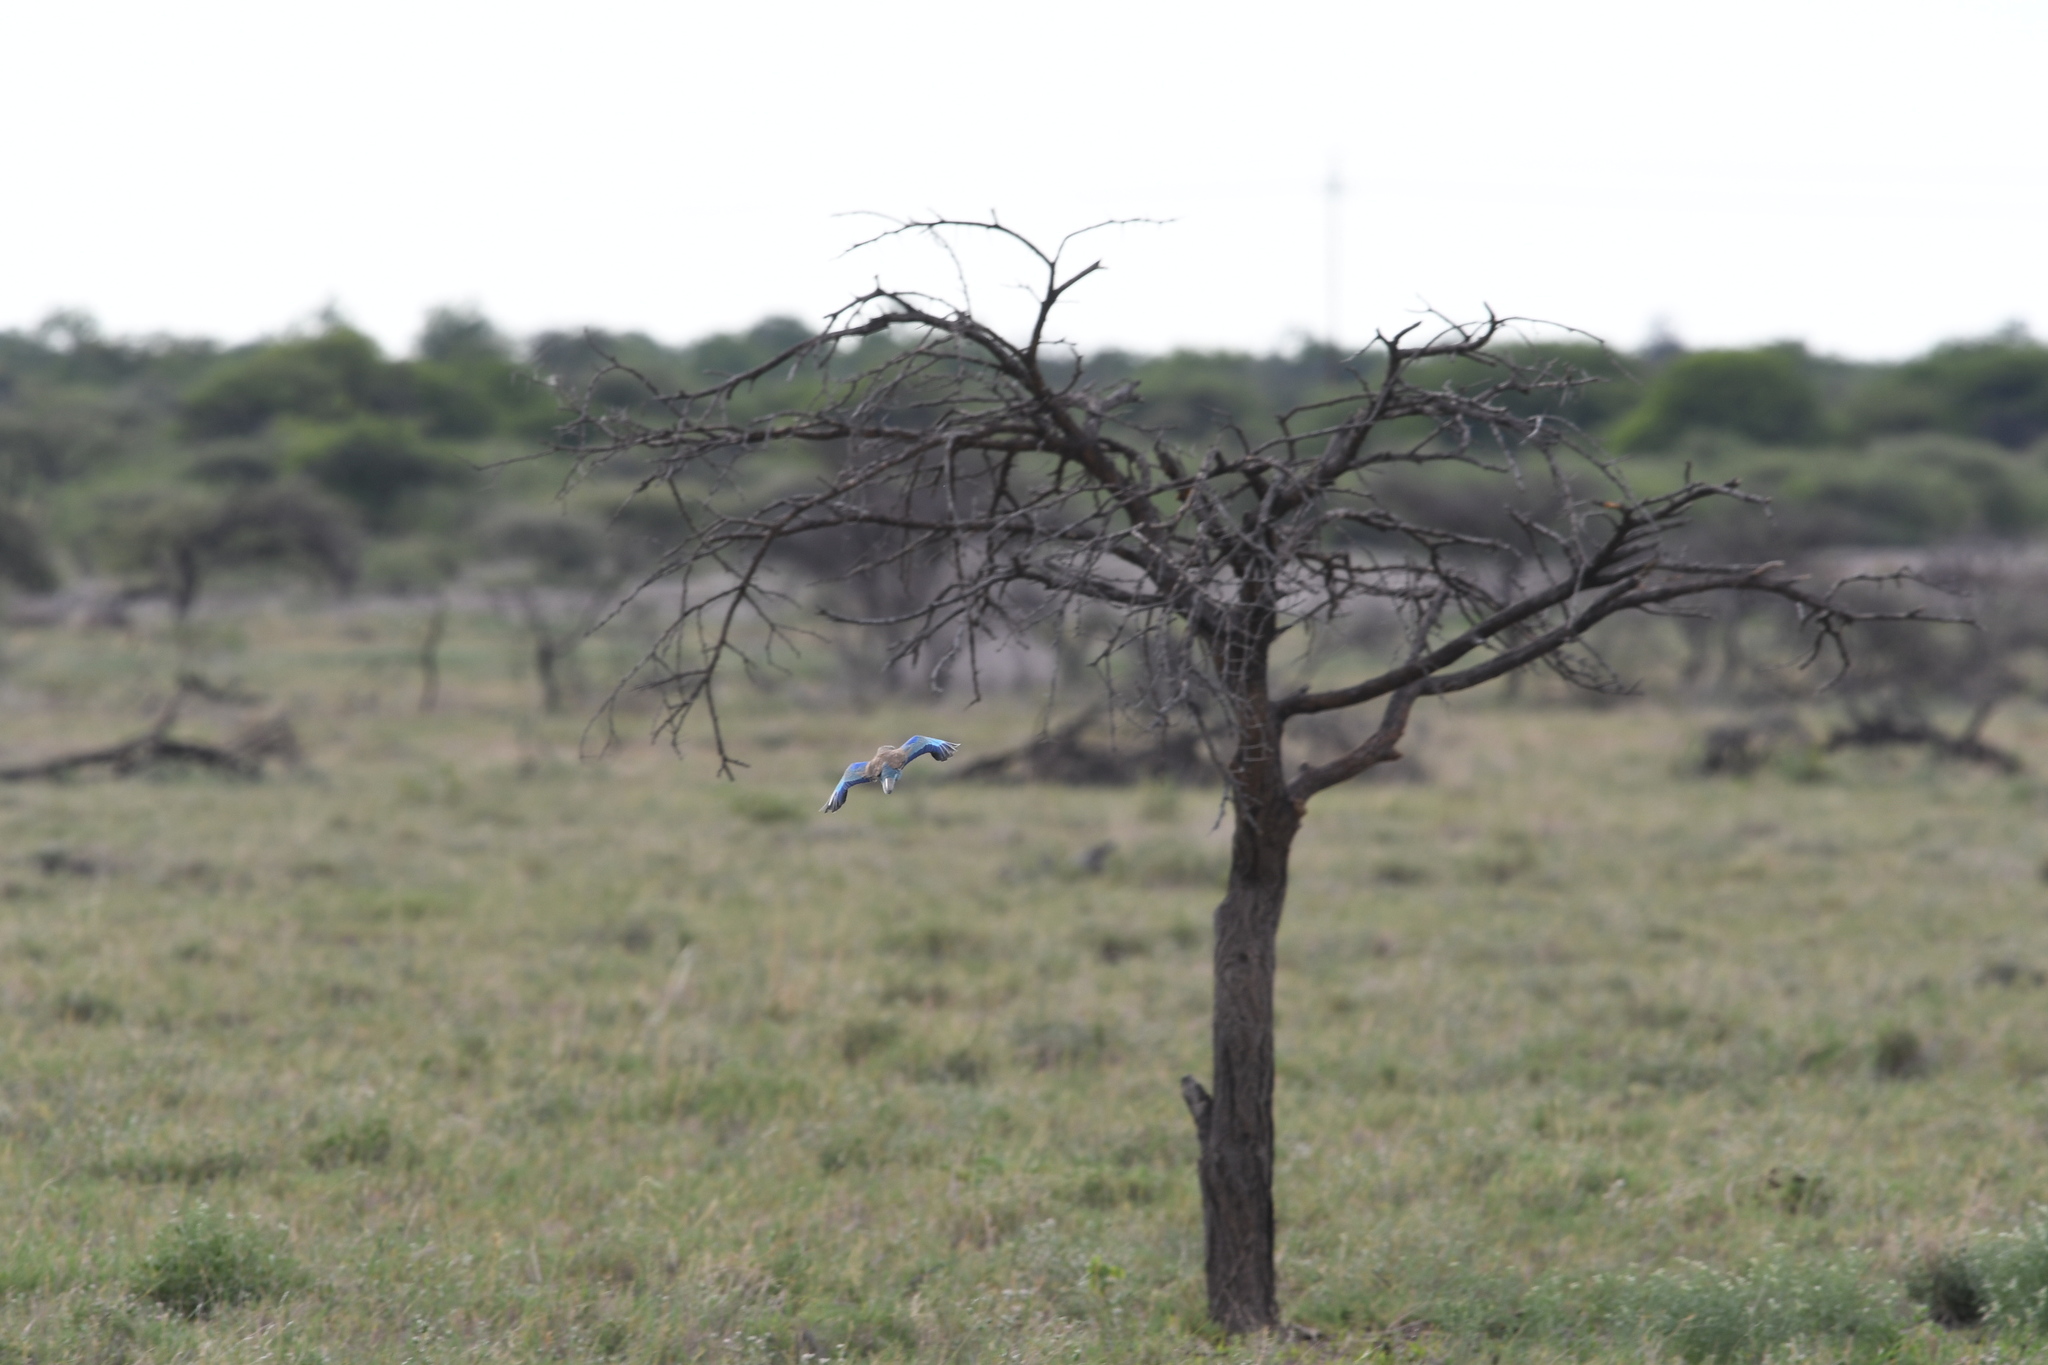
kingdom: Animalia
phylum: Chordata
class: Aves
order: Coraciiformes
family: Coraciidae
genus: Coracias
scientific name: Coracias garrulus
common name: European roller
